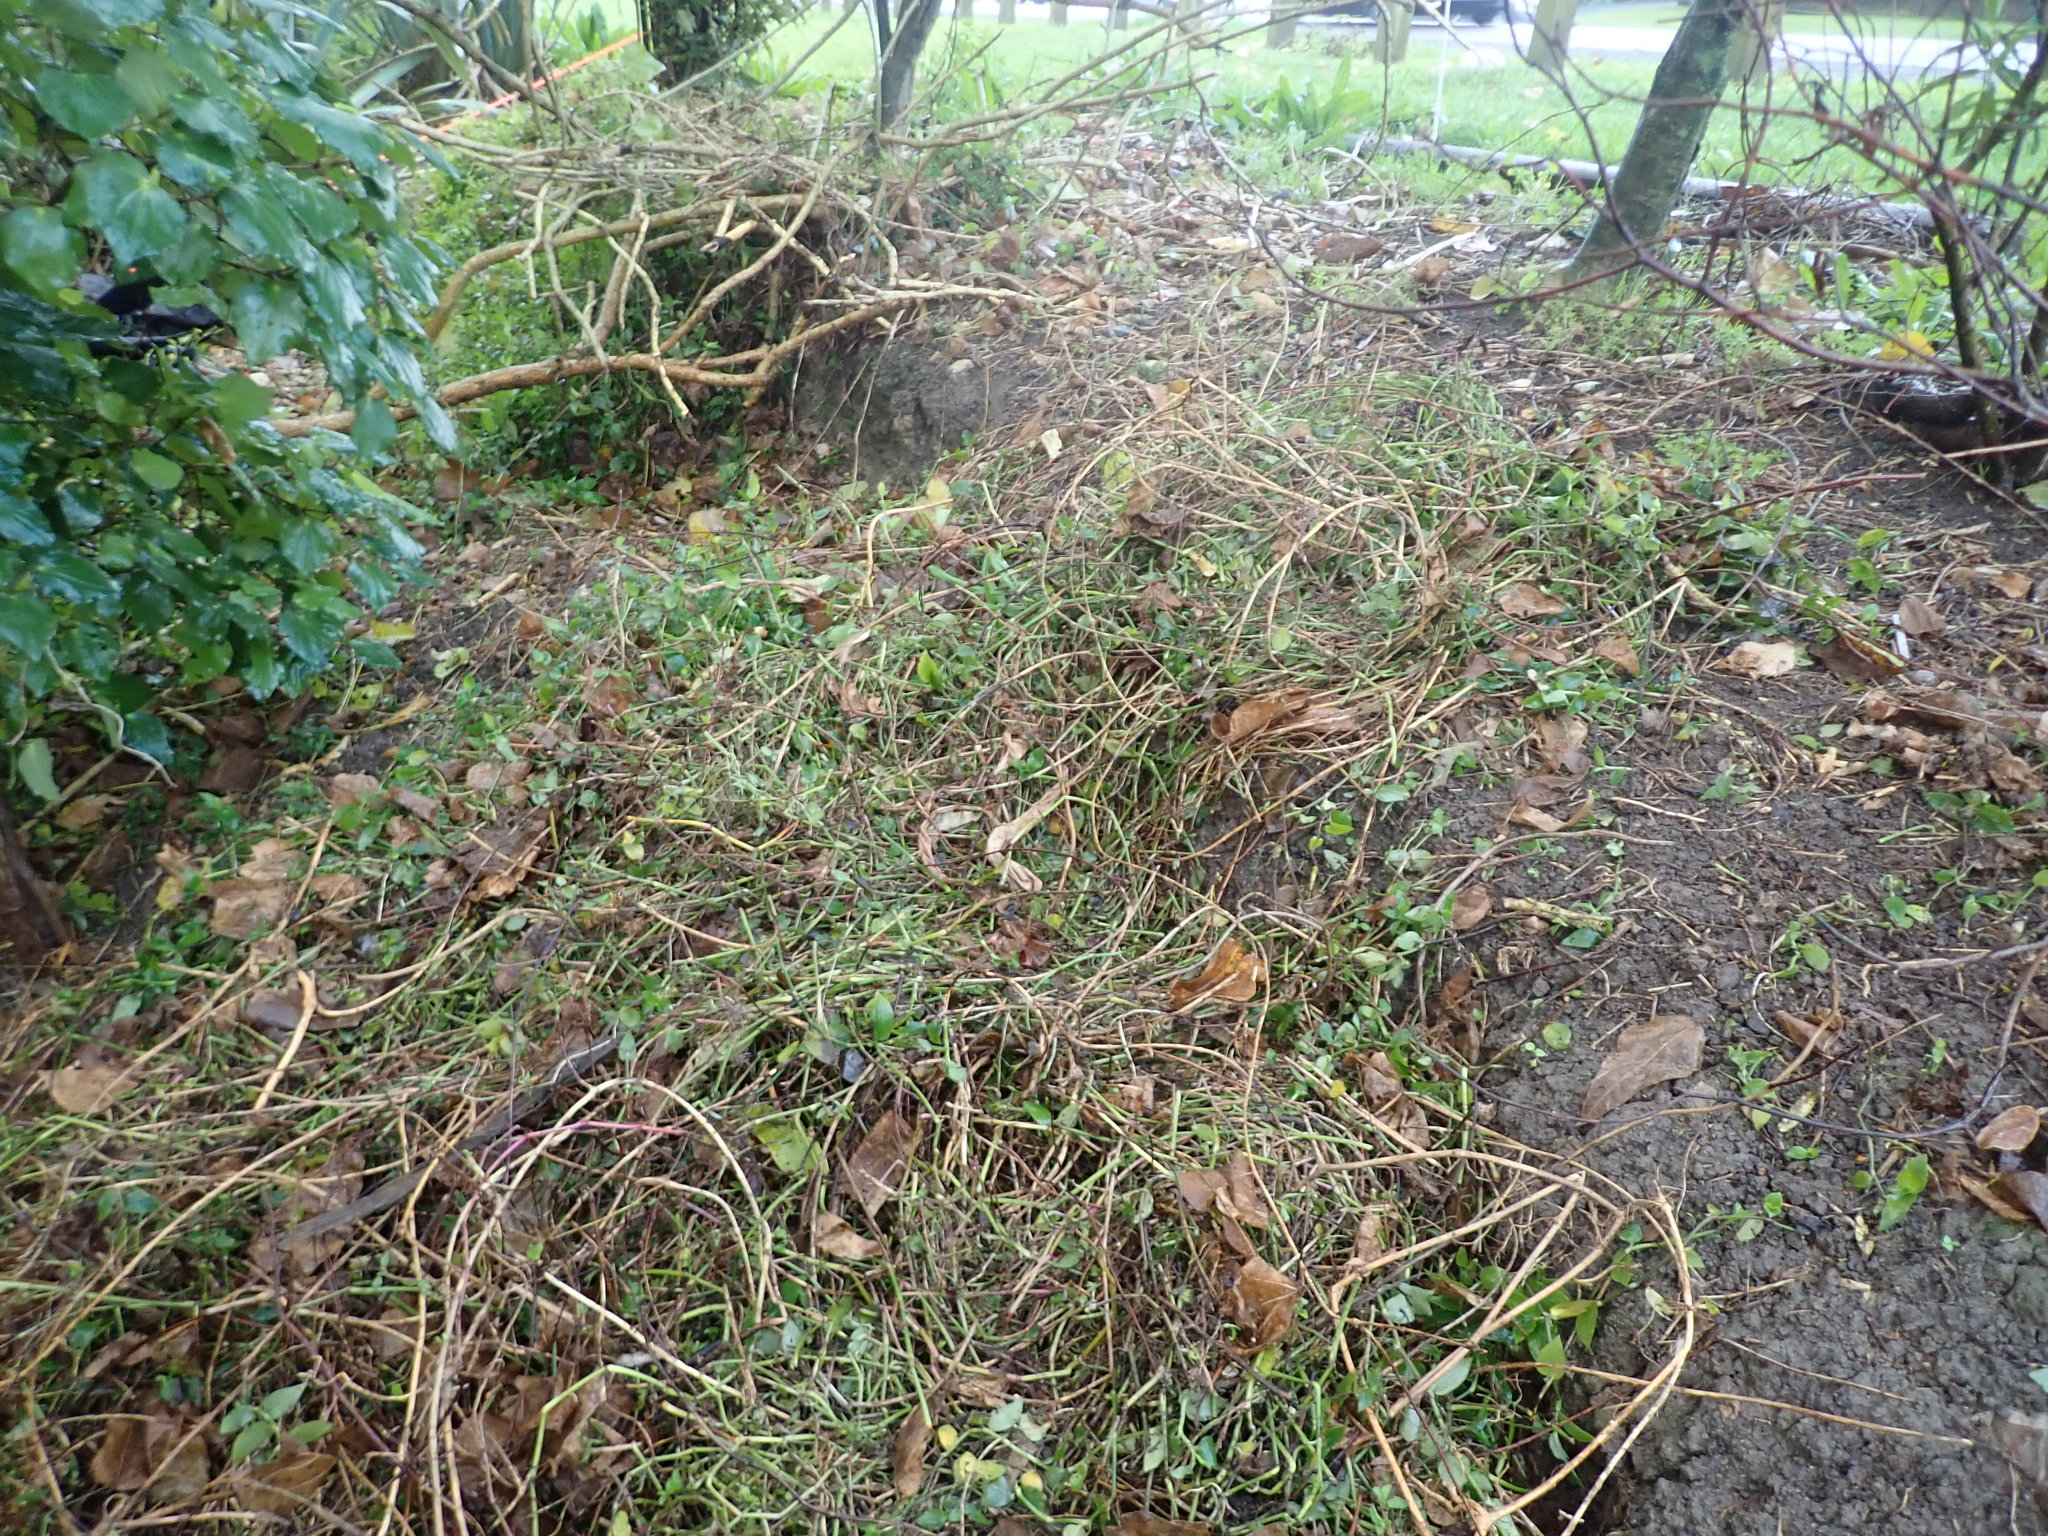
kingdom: Plantae
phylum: Tracheophyta
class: Liliopsida
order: Commelinales
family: Commelinaceae
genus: Tradescantia
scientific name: Tradescantia fluminensis
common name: Wandering-jew
